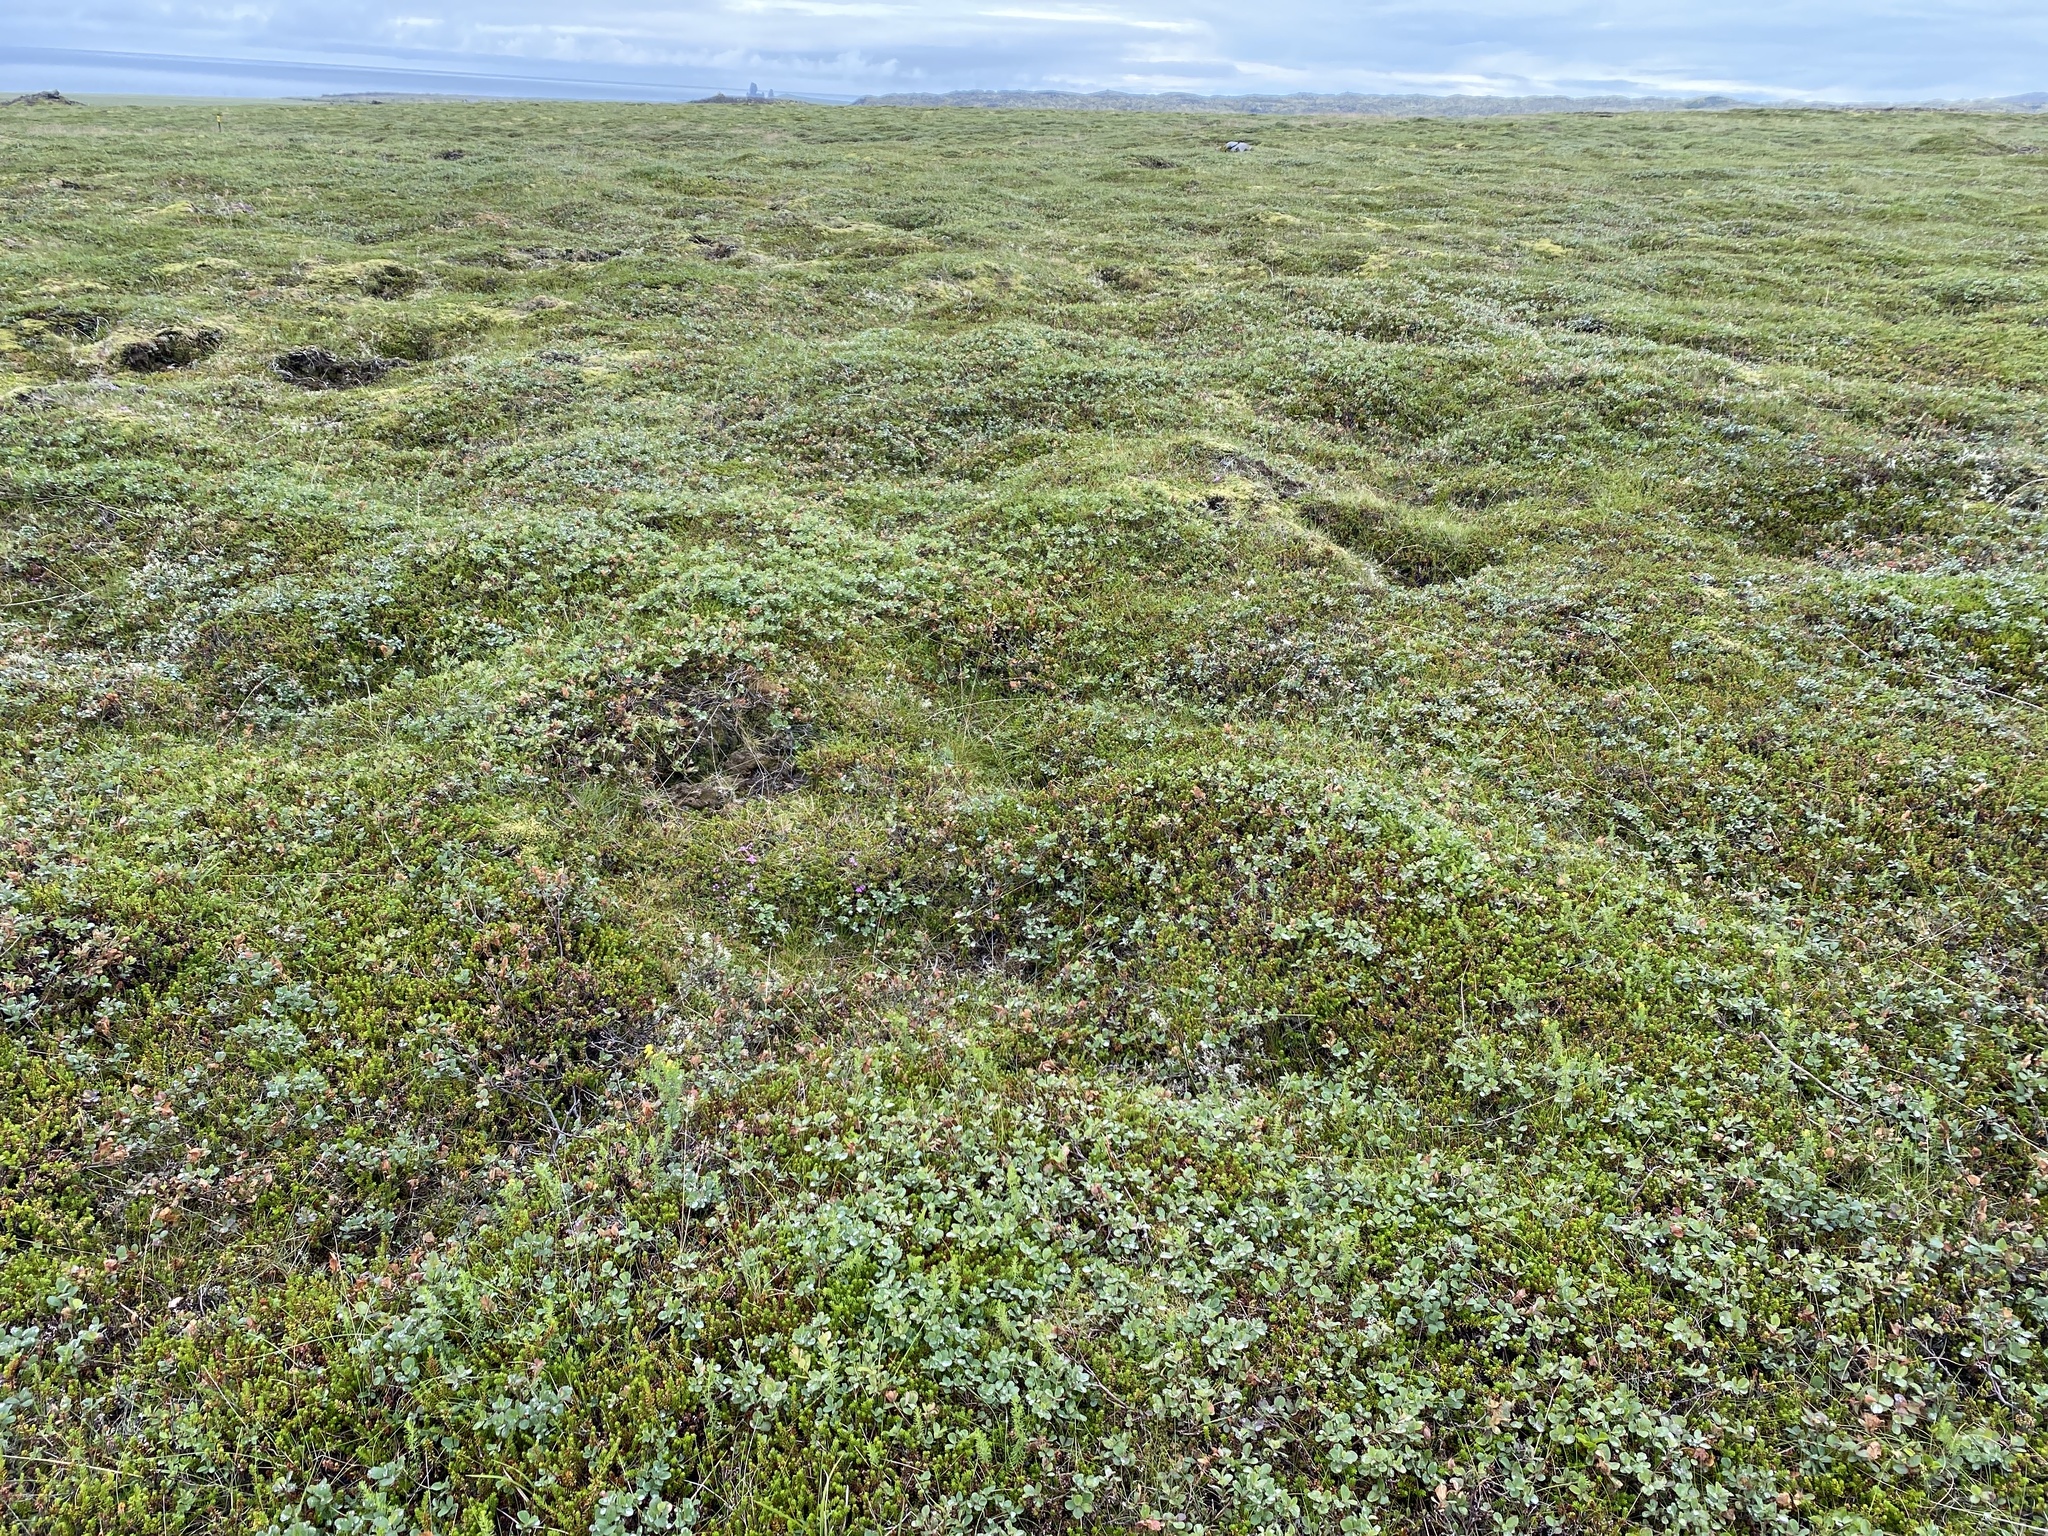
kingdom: Plantae
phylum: Tracheophyta
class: Magnoliopsida
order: Ericales
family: Ericaceae
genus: Empetrum
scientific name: Empetrum nigrum
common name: Black crowberry
